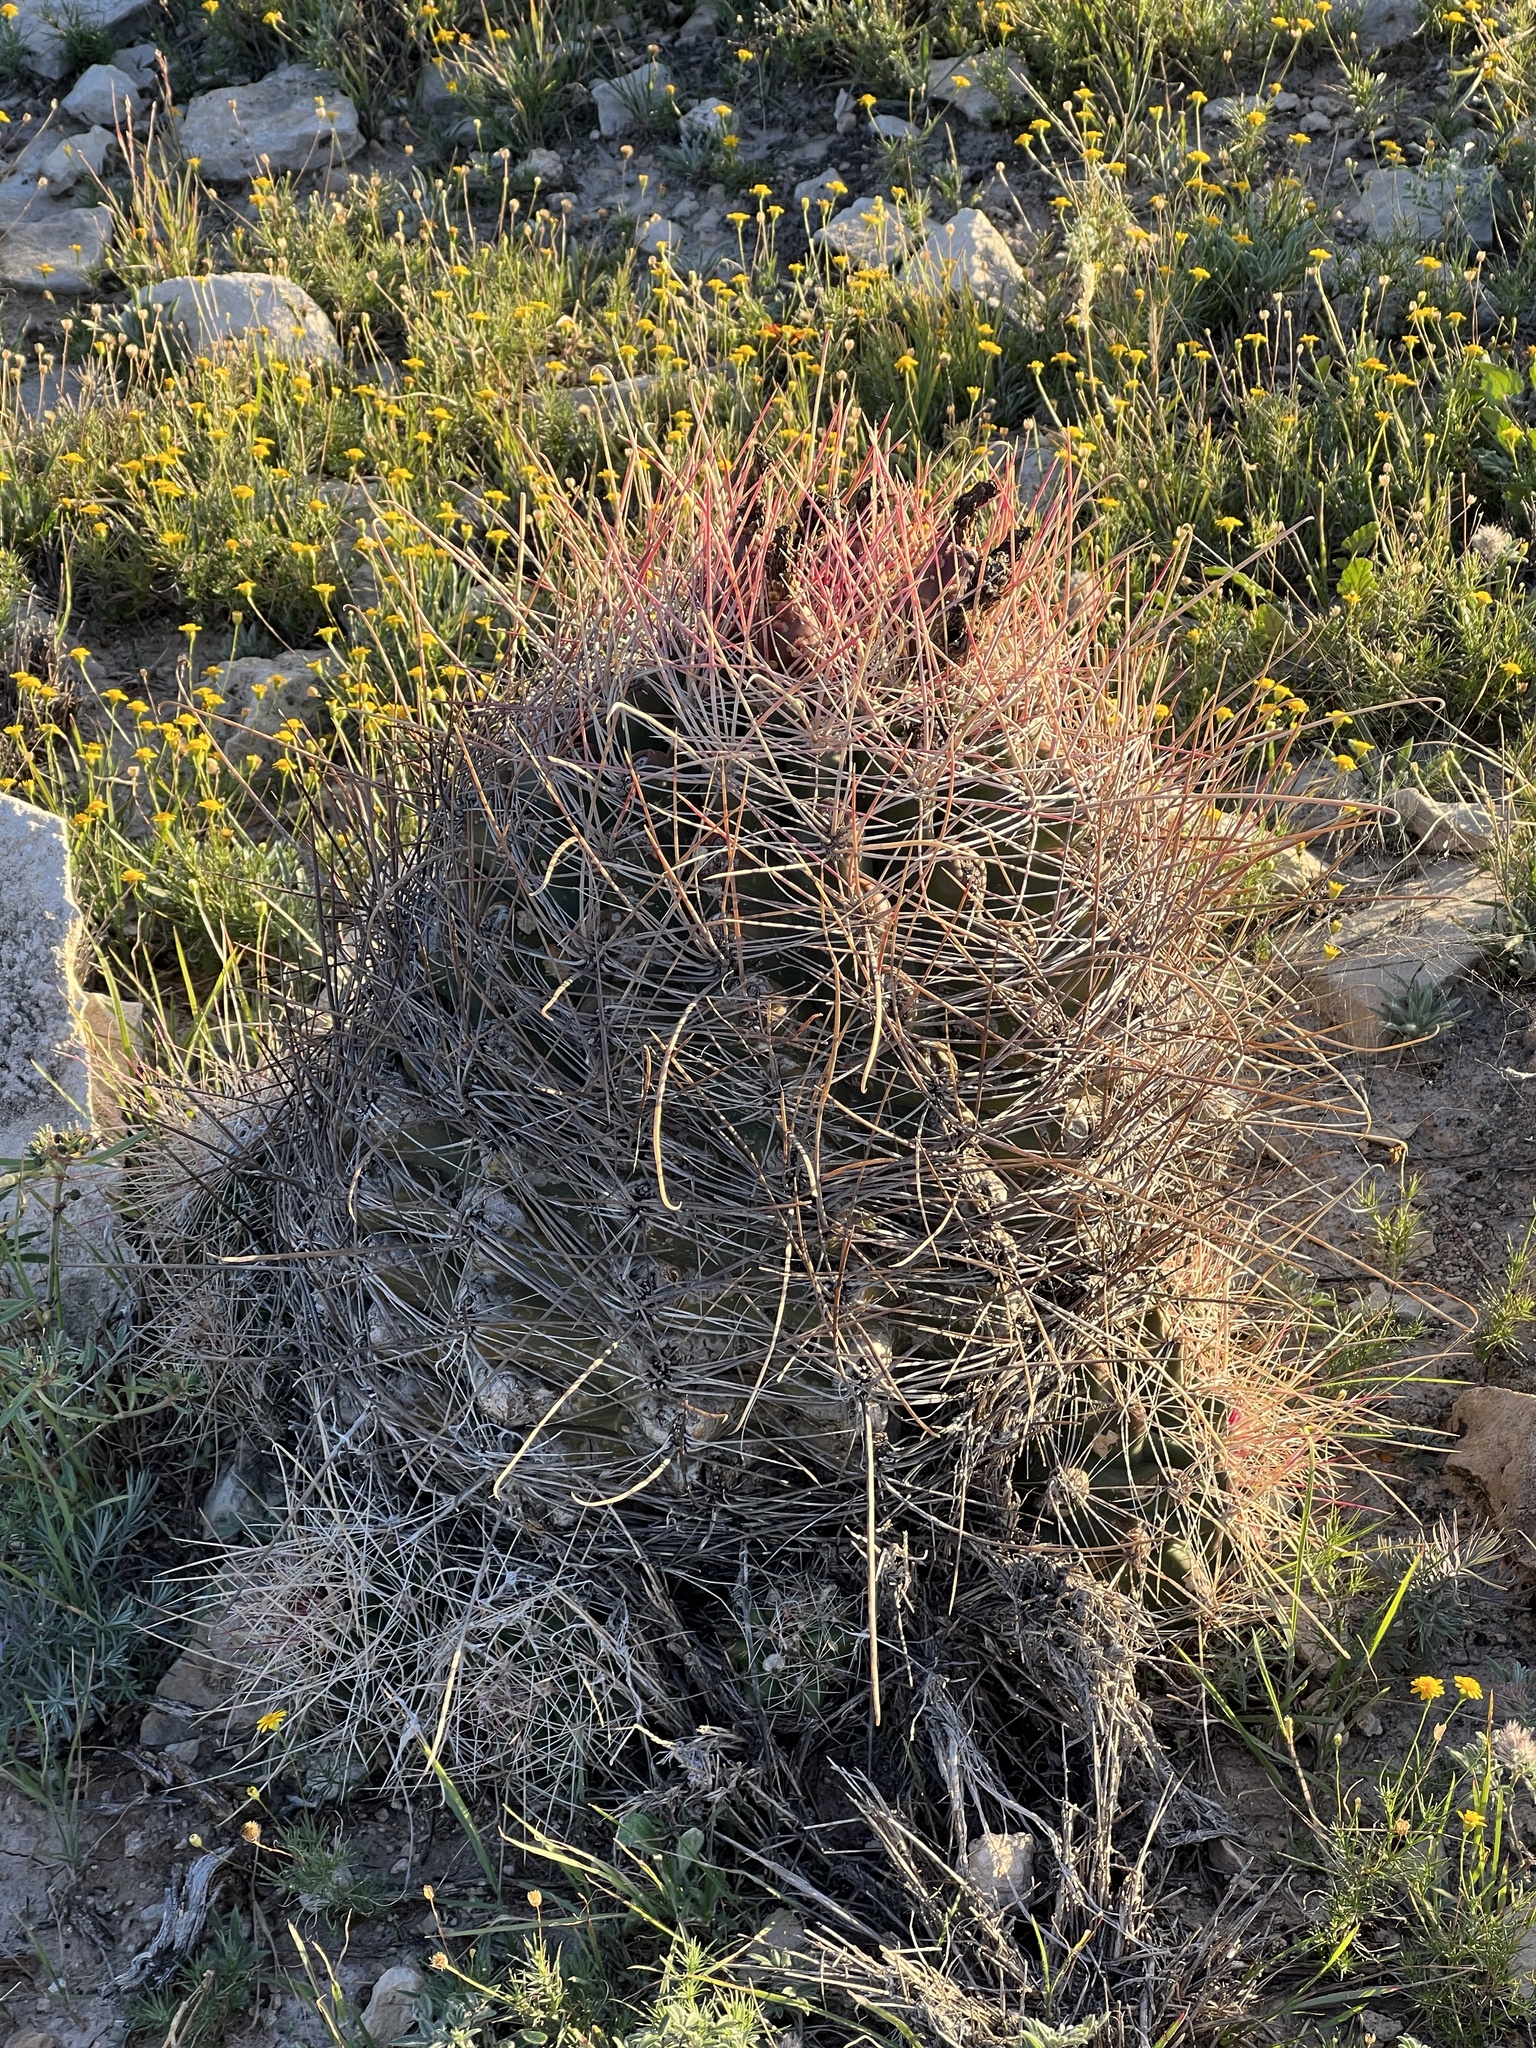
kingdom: Plantae
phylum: Tracheophyta
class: Magnoliopsida
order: Caryophyllales
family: Cactaceae
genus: Bisnaga
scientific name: Bisnaga hamatacantha
